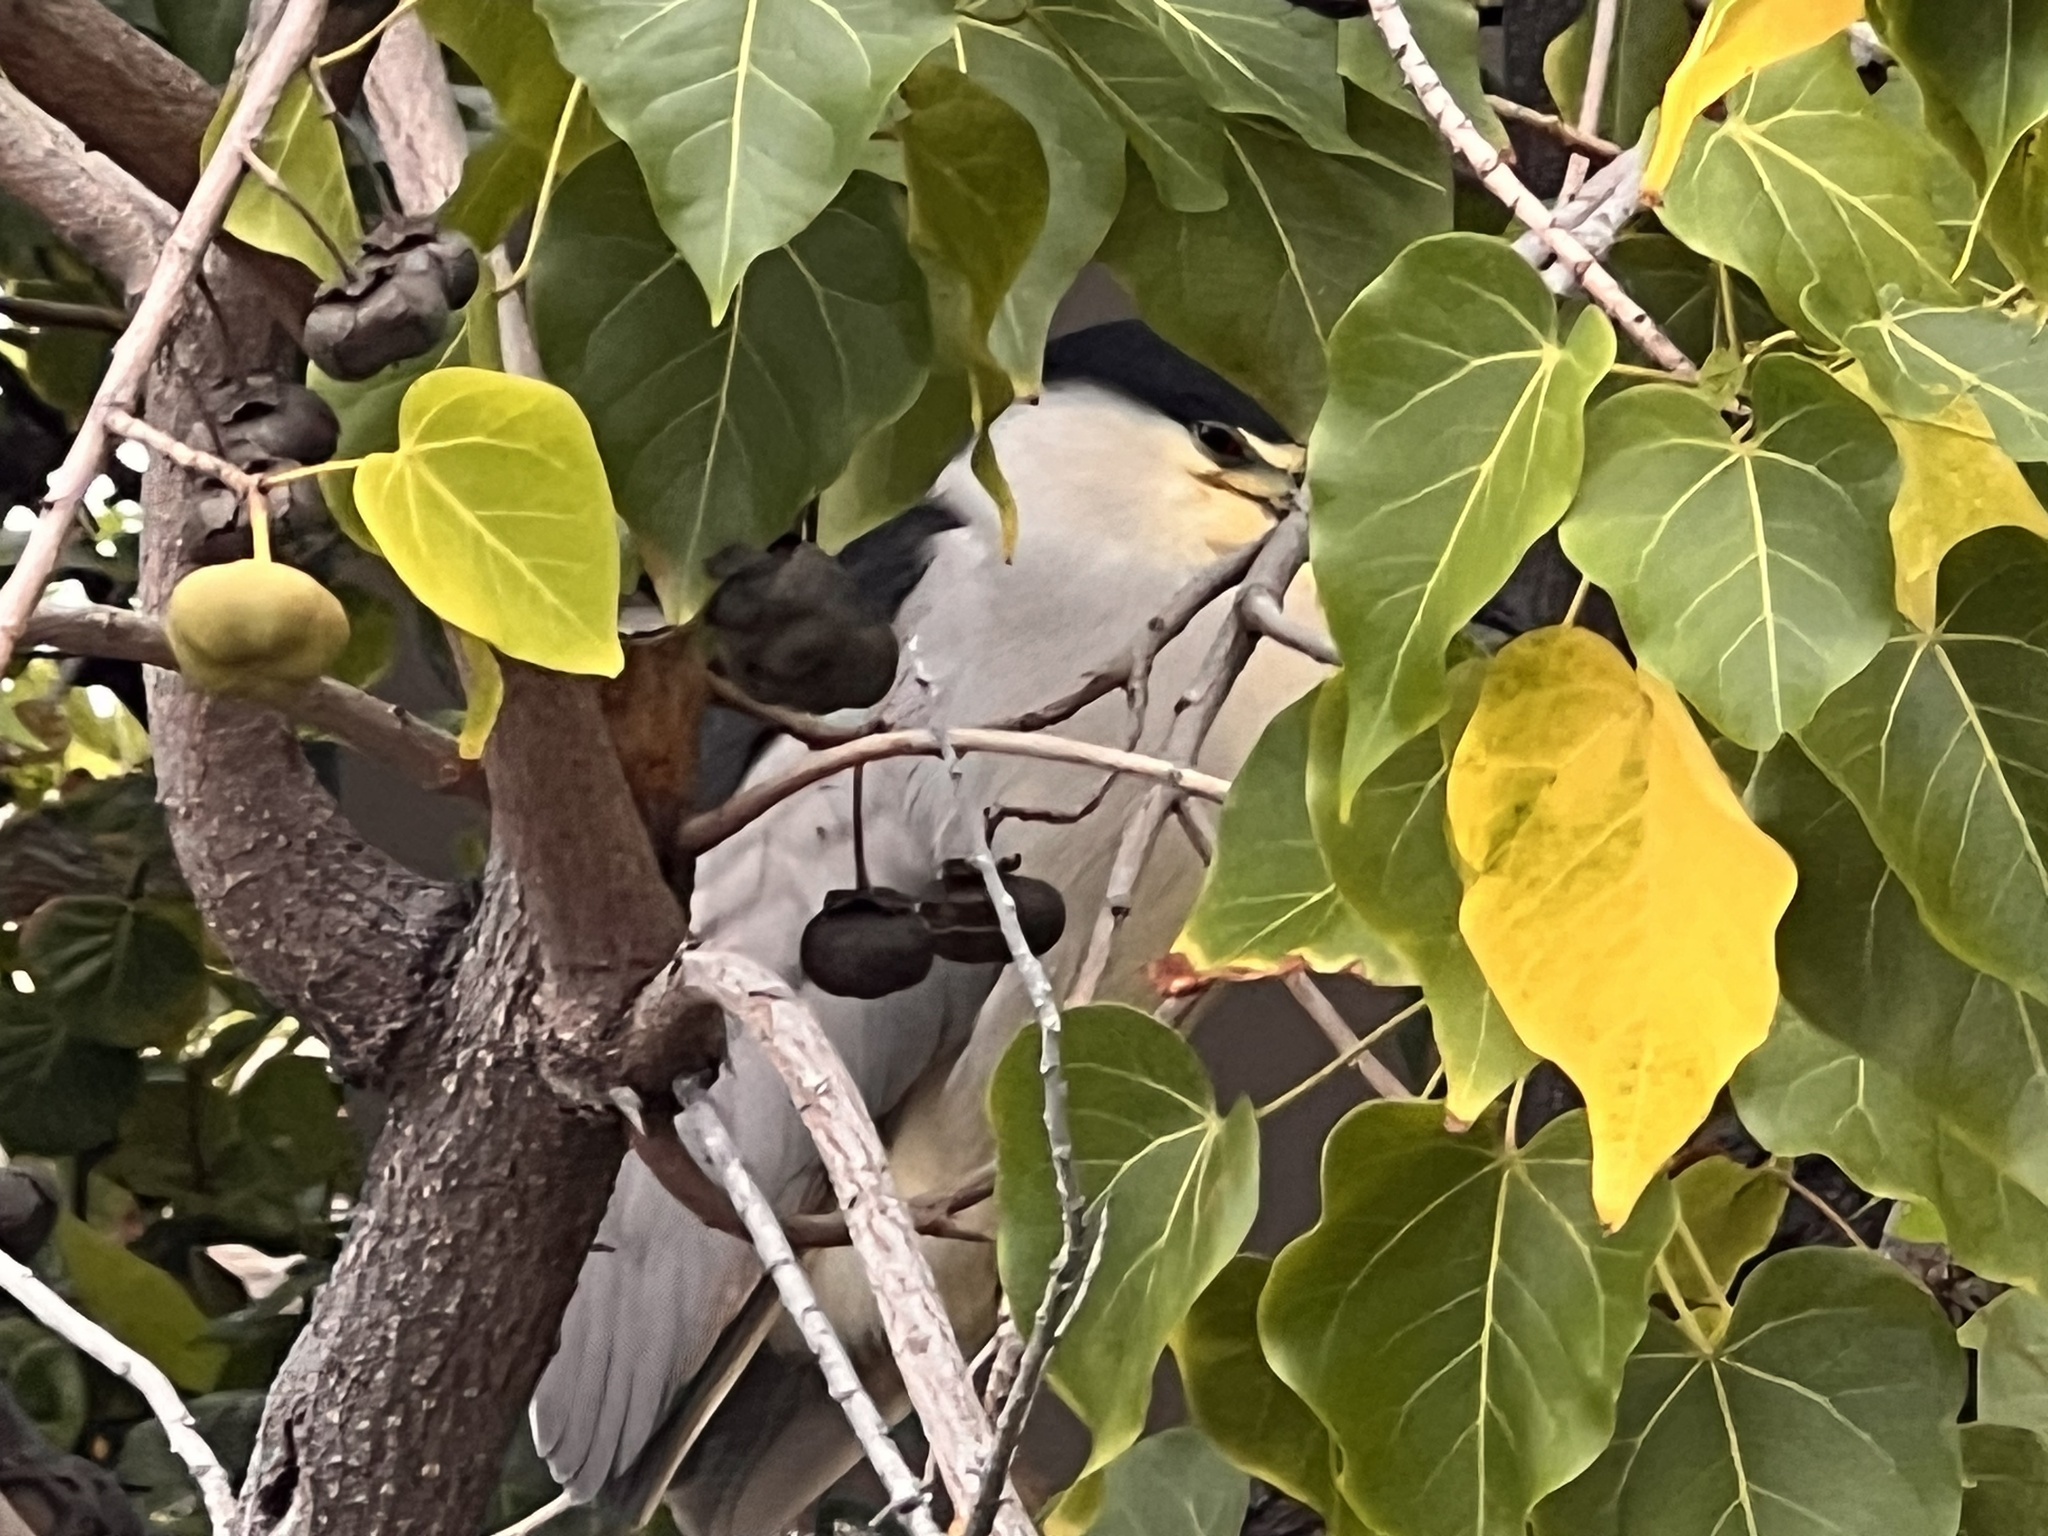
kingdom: Animalia
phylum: Chordata
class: Aves
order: Pelecaniformes
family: Ardeidae
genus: Nycticorax
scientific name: Nycticorax nycticorax
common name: Black-crowned night heron
